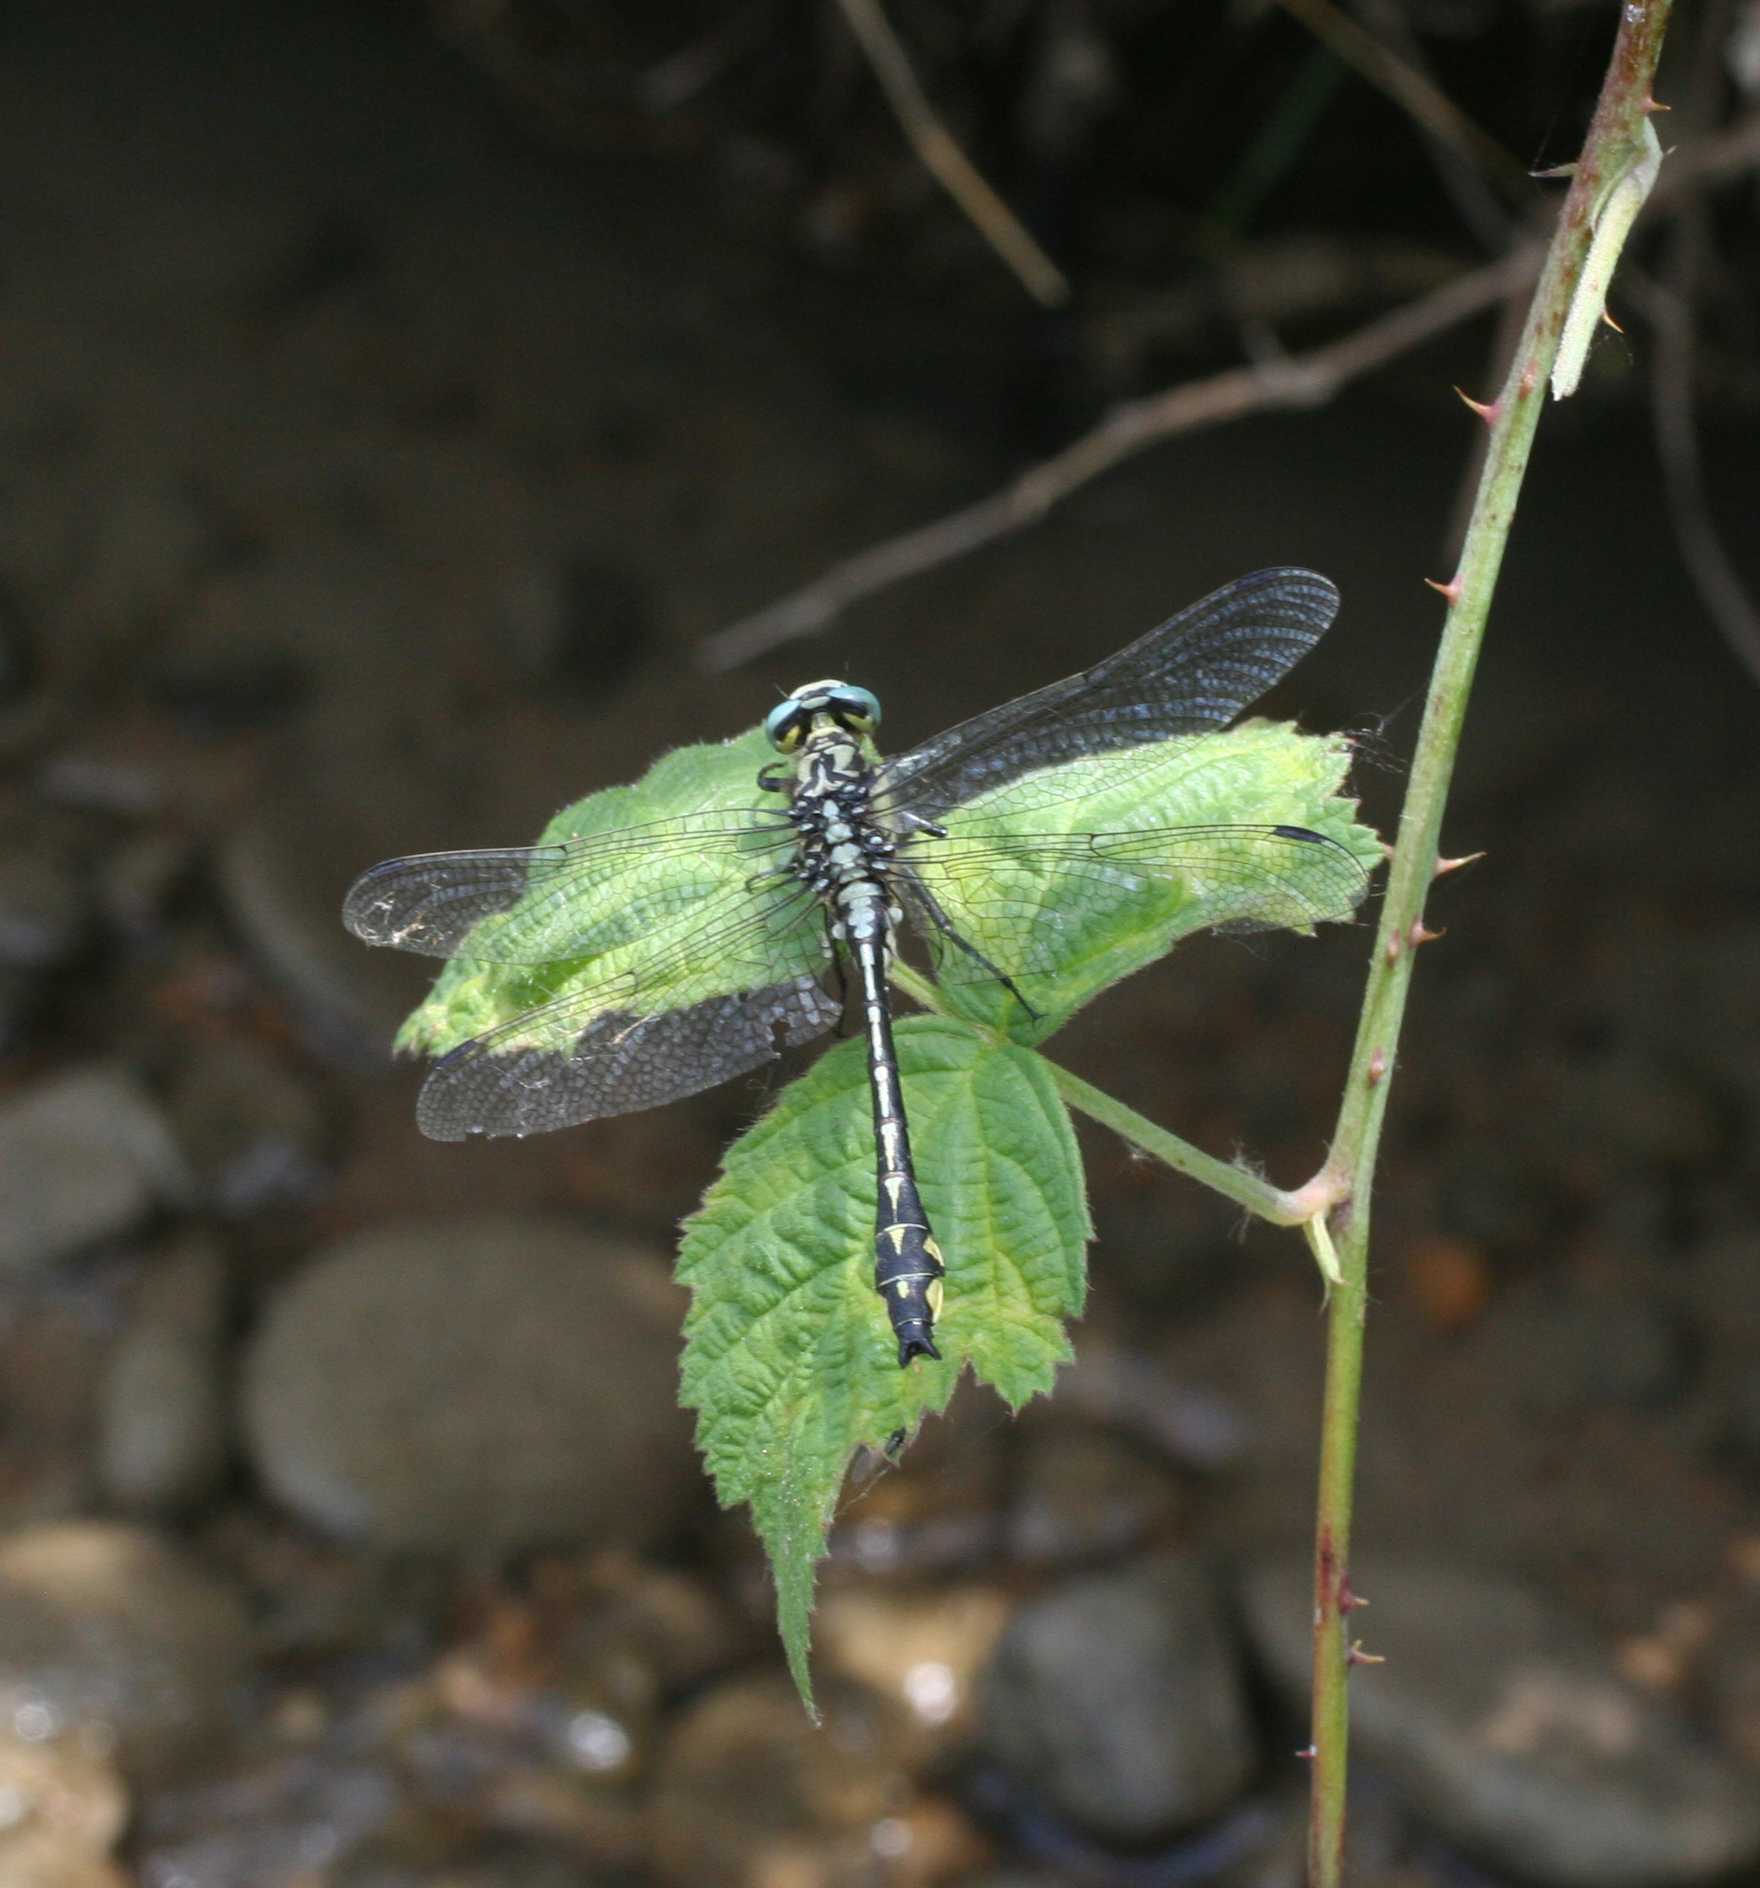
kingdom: Animalia
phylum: Arthropoda
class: Insecta
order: Odonata
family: Gomphidae
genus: Gomphus
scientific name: Gomphus schneiderii
